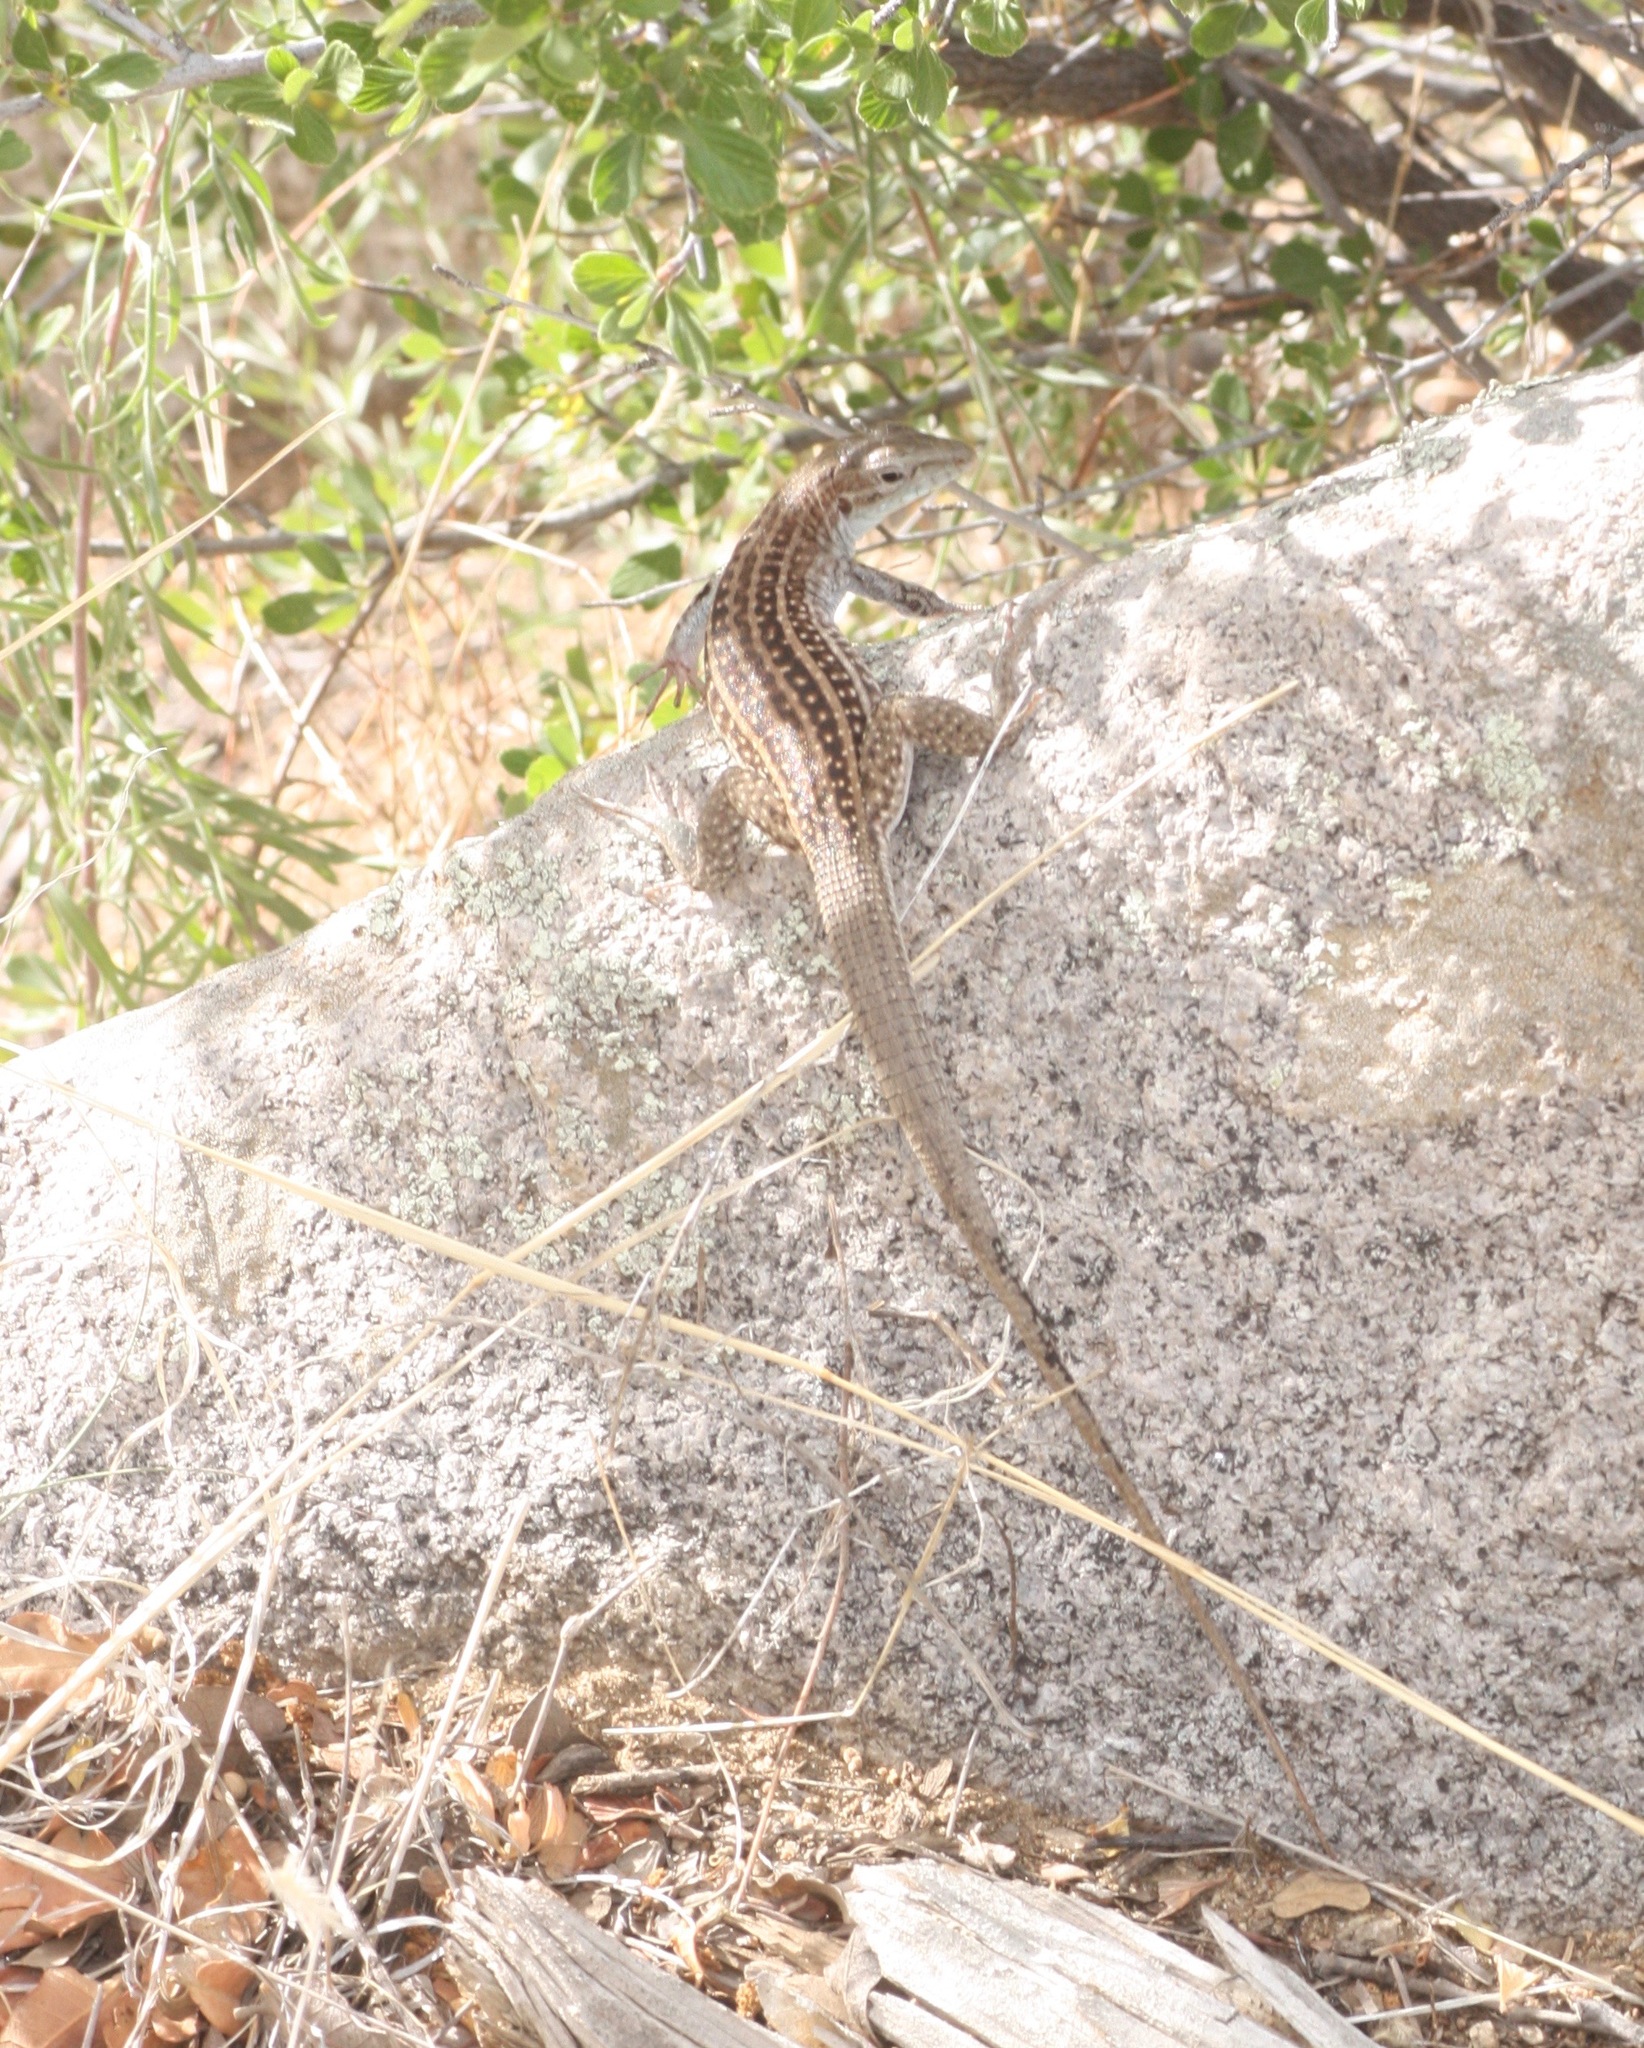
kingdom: Animalia
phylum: Chordata
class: Squamata
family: Teiidae
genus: Aspidoscelis
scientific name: Aspidoscelis exsanguis
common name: Chihuahuan spotted whiptail
